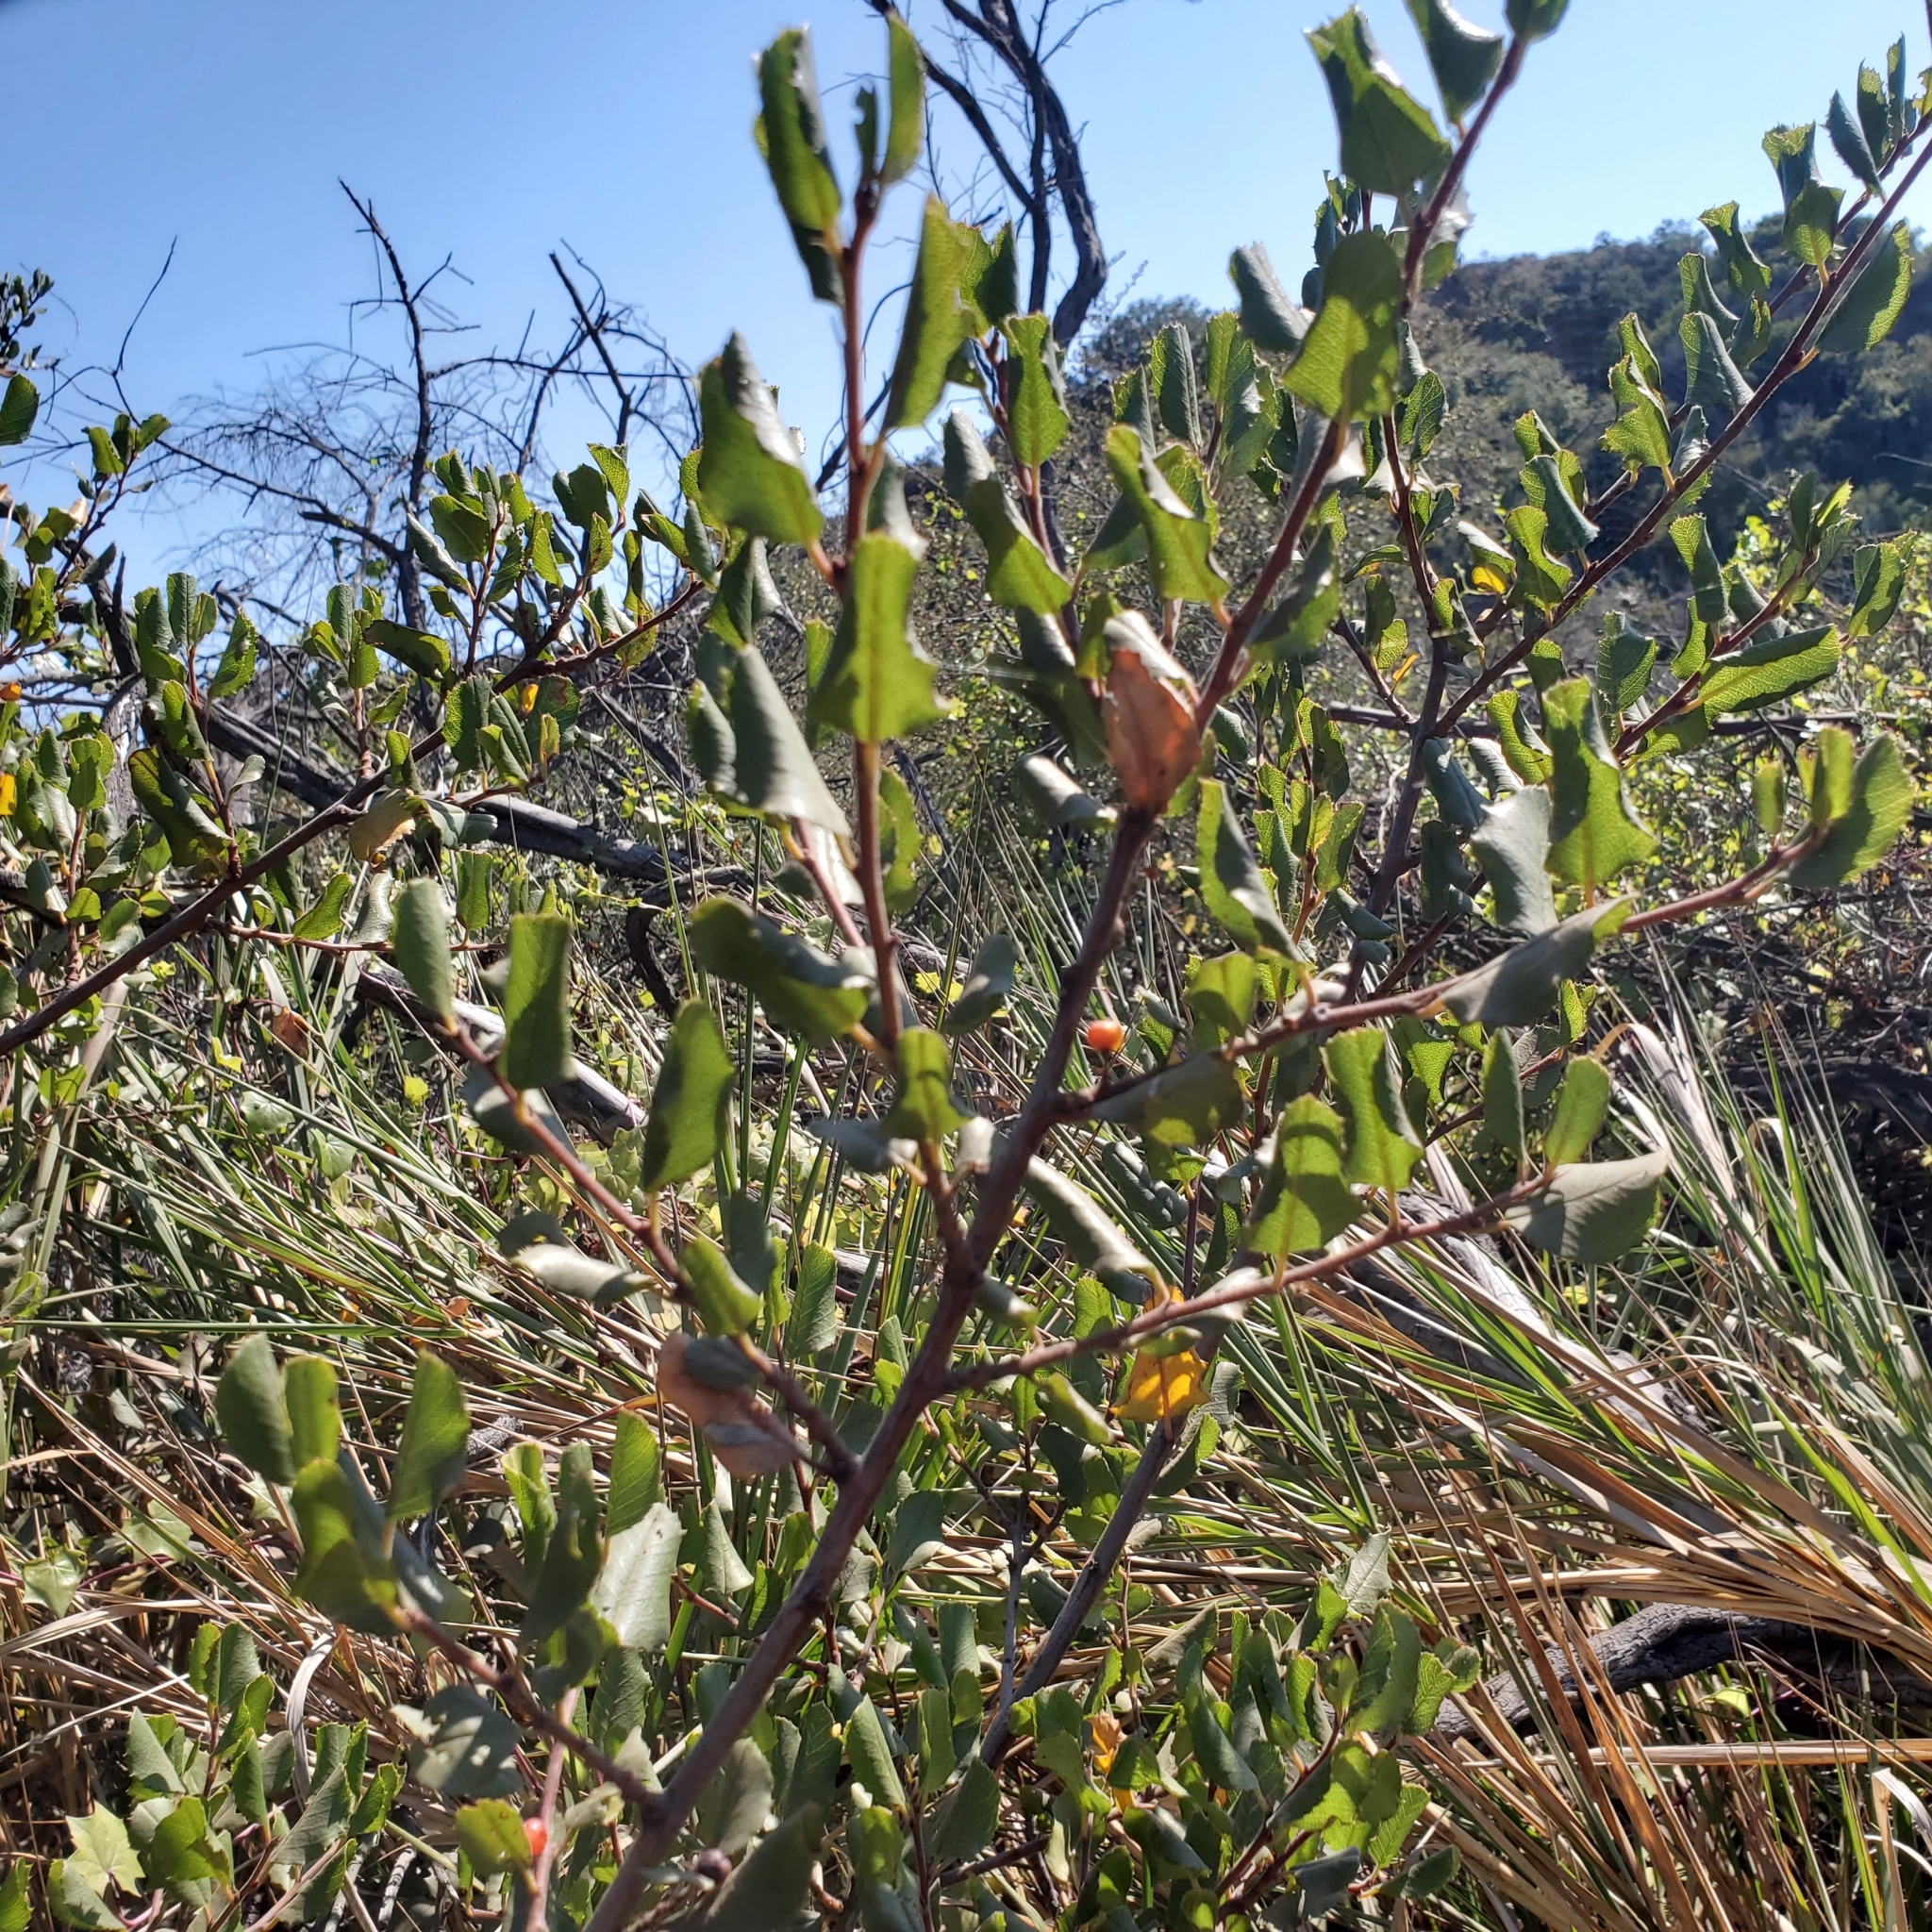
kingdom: Plantae
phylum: Tracheophyta
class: Magnoliopsida
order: Rosales
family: Rhamnaceae
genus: Endotropis
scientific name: Endotropis crocea
